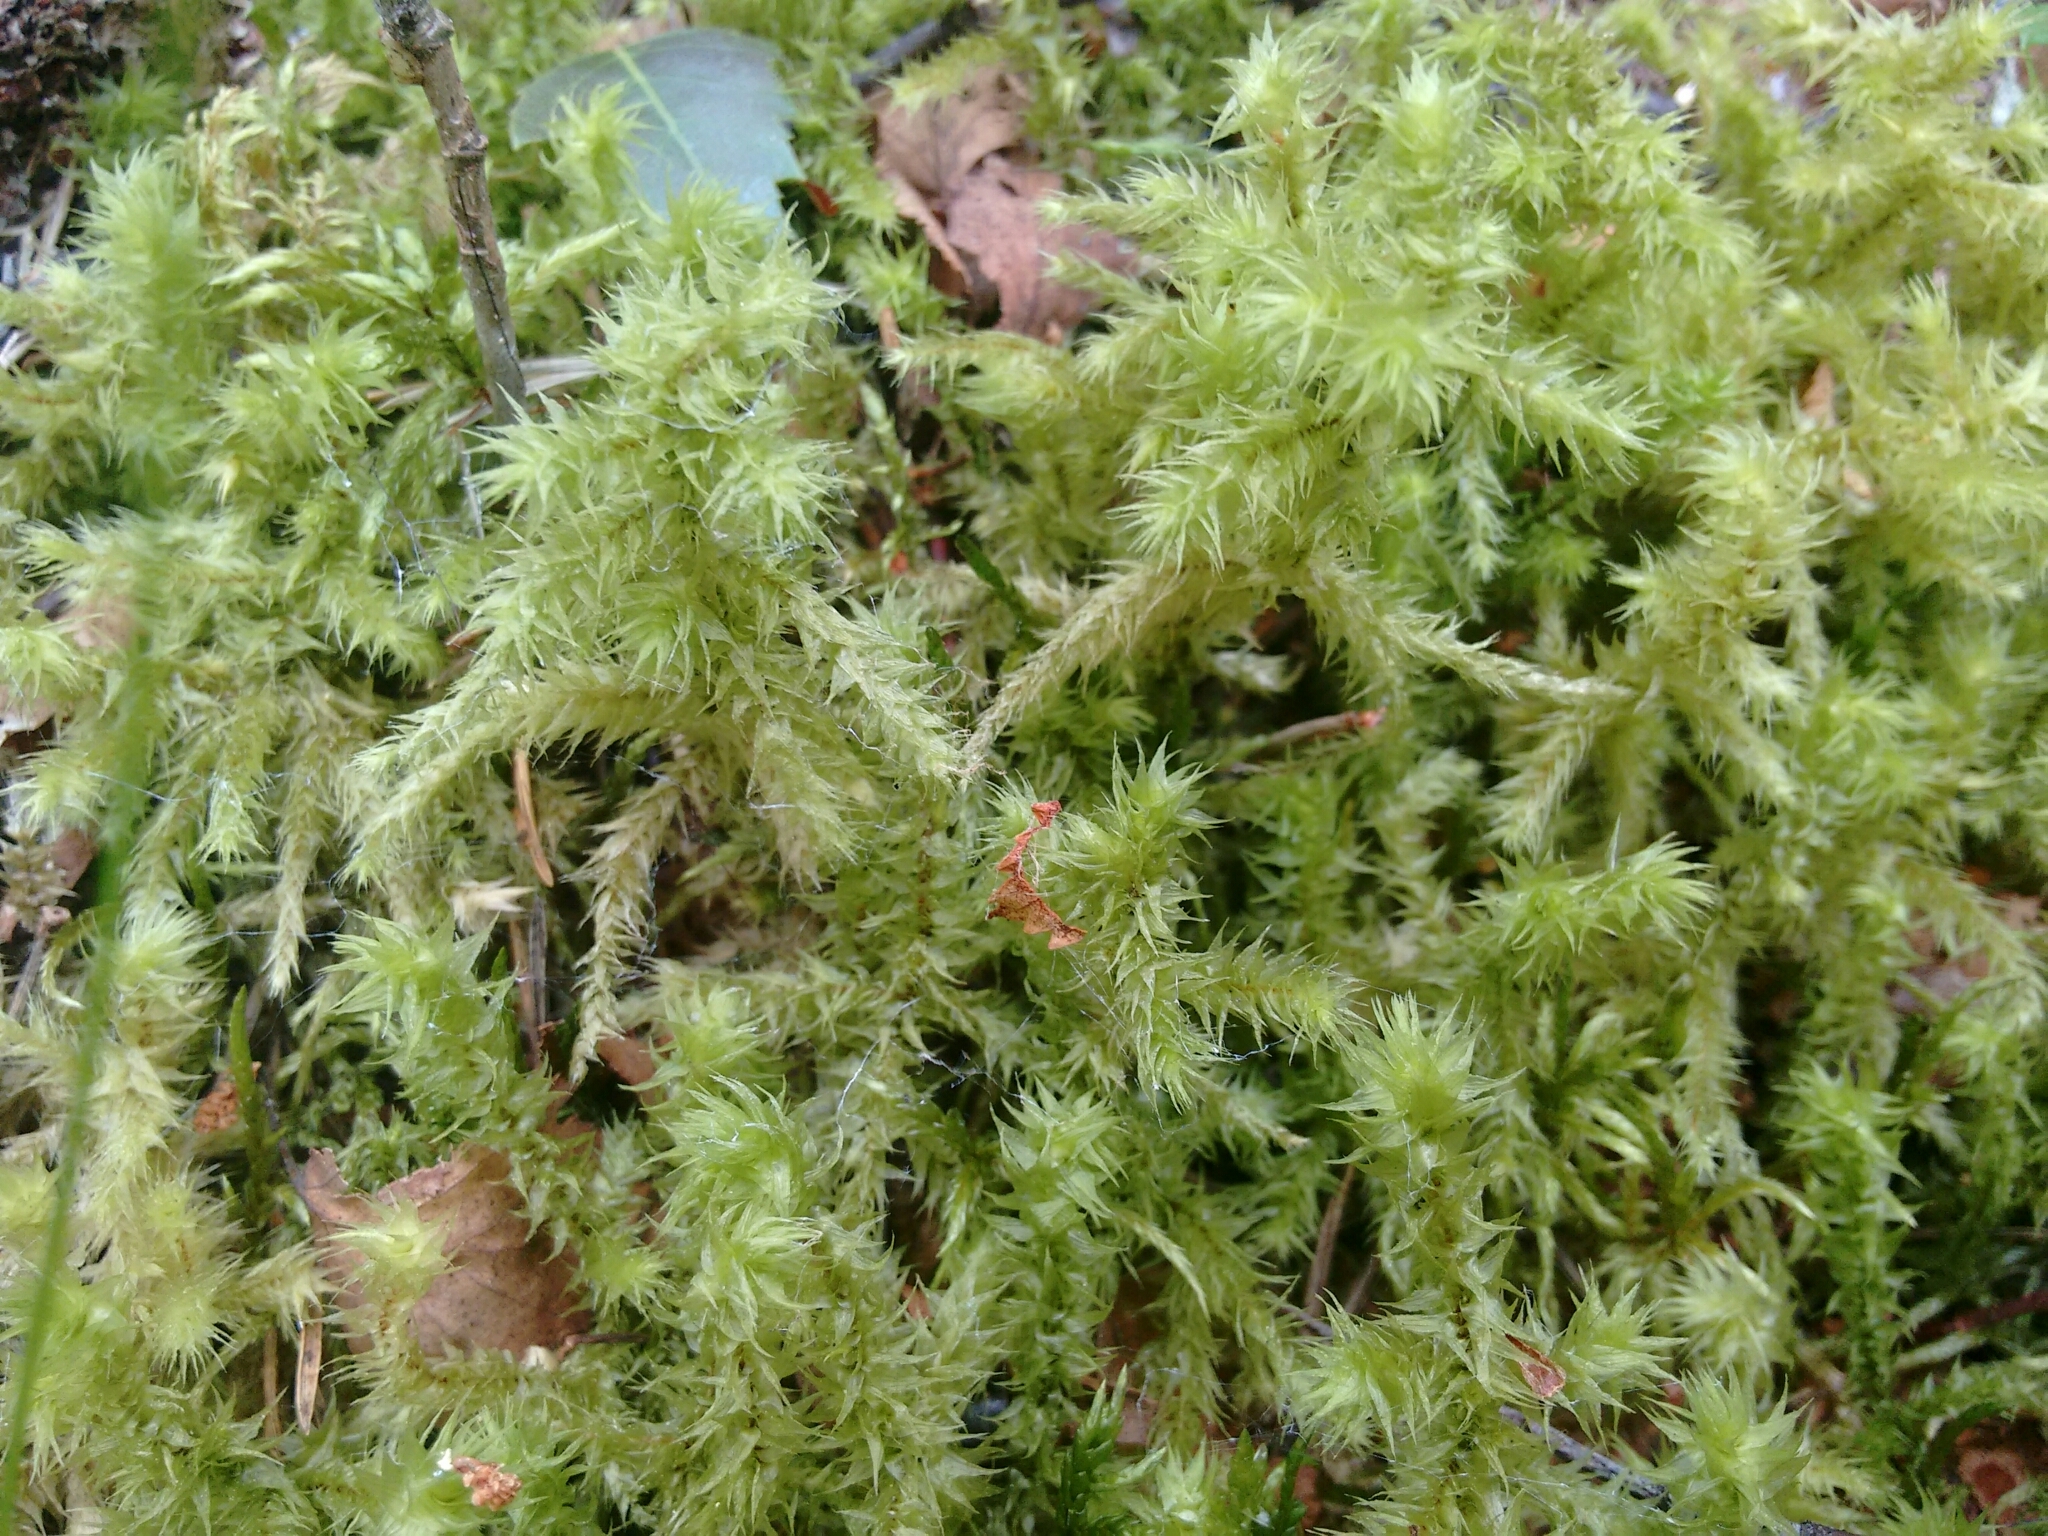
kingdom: Plantae
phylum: Bryophyta
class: Bryopsida
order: Hypnales
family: Hylocomiaceae
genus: Hylocomiadelphus
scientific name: Hylocomiadelphus triquetrus
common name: Rough goose neck moss
